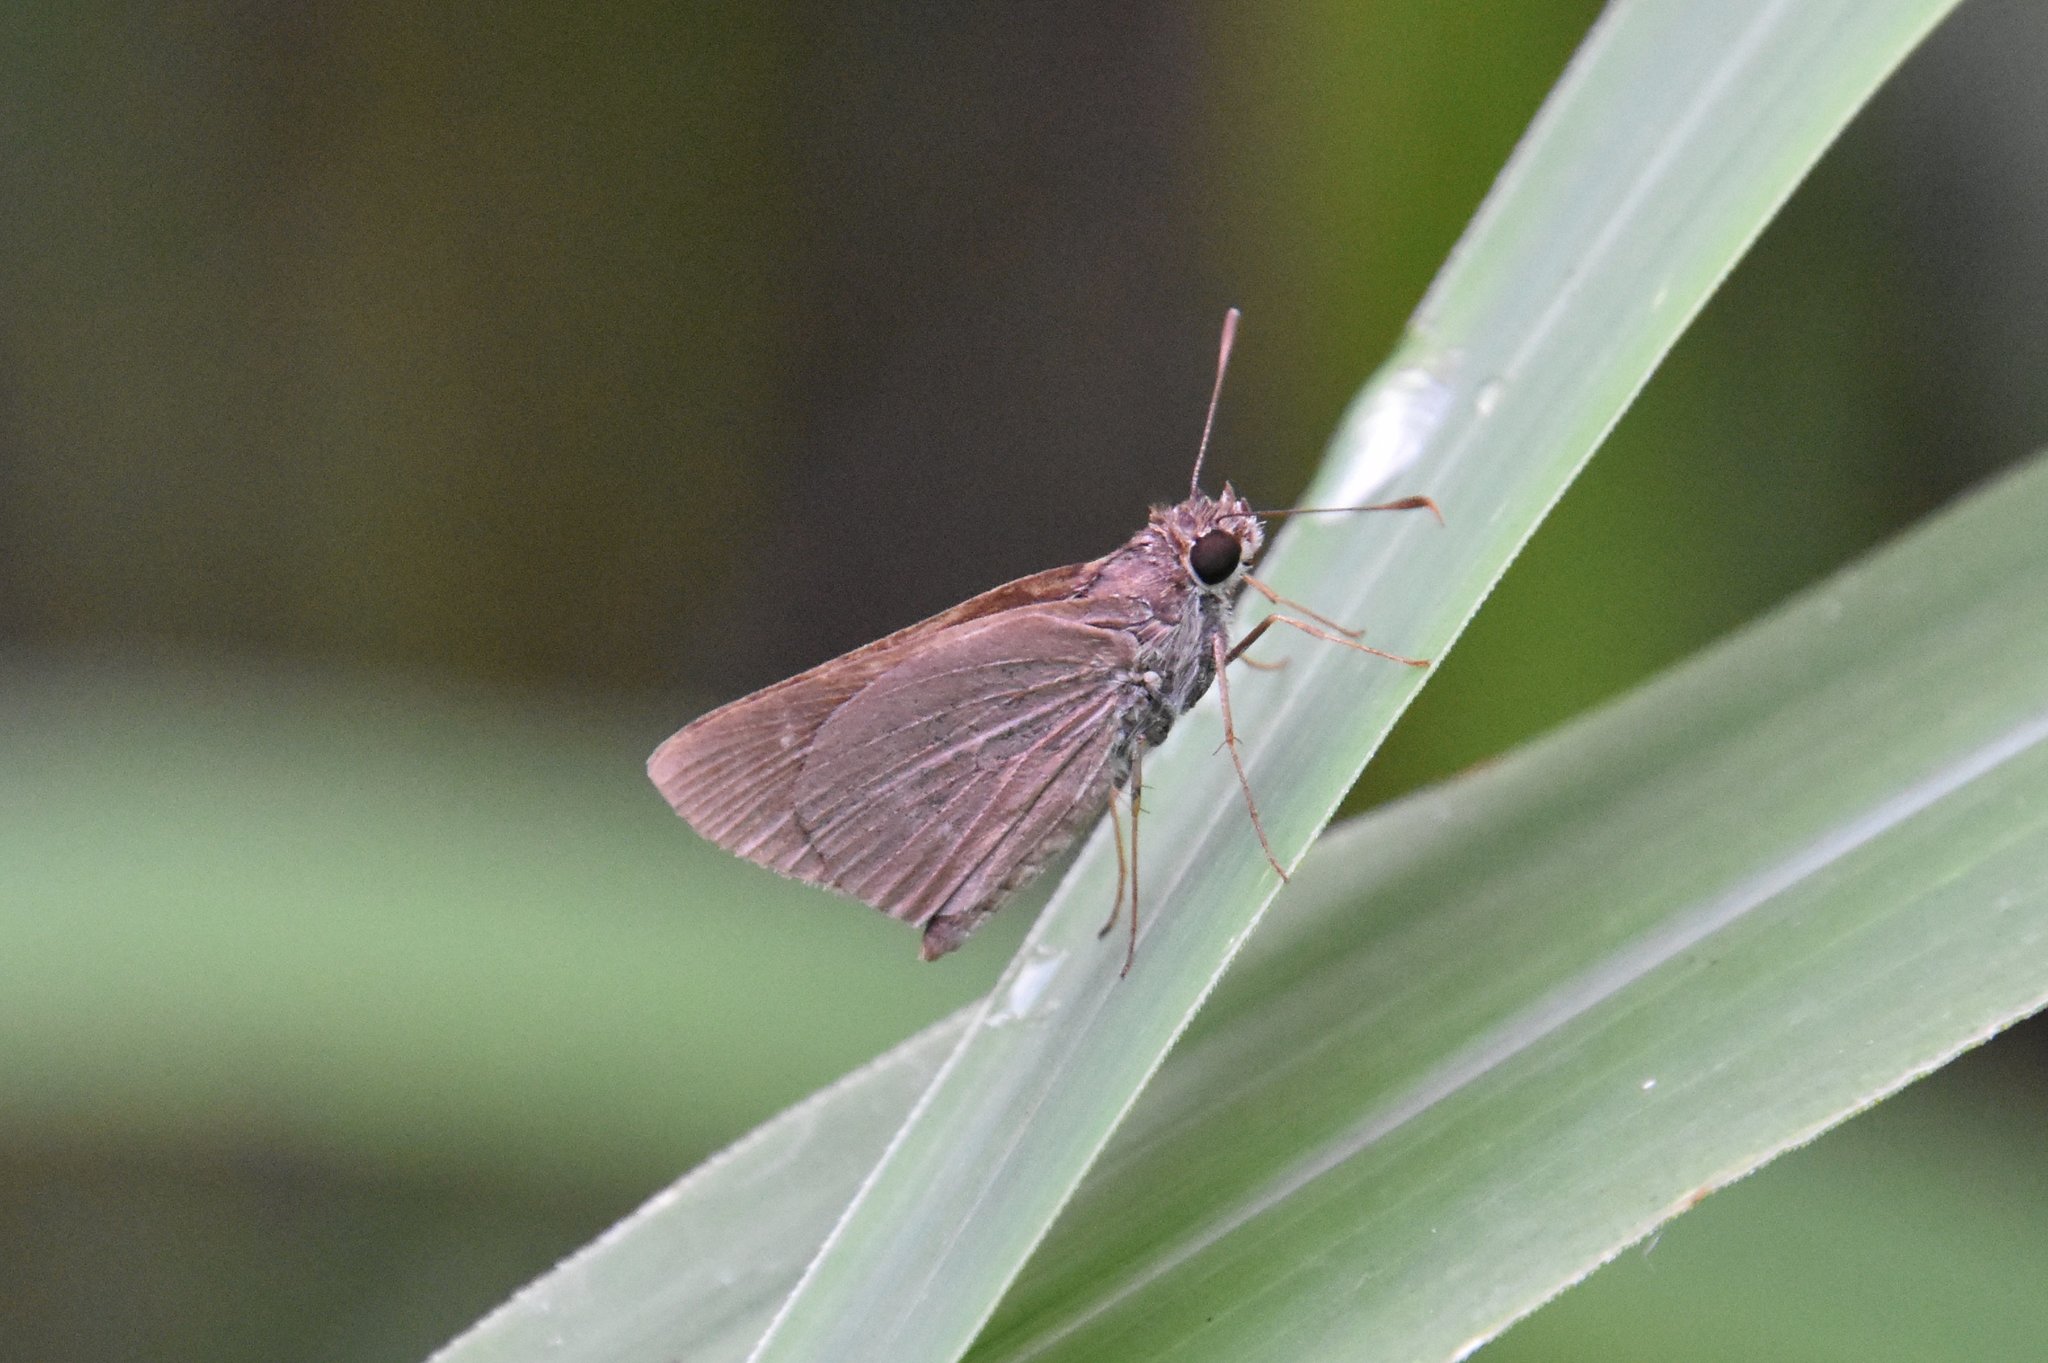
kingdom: Animalia
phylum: Arthropoda
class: Insecta
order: Lepidoptera
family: Hesperiidae
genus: Cymaenes
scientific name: Cymaenes tripunctus
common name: Dingy dotted skipper
